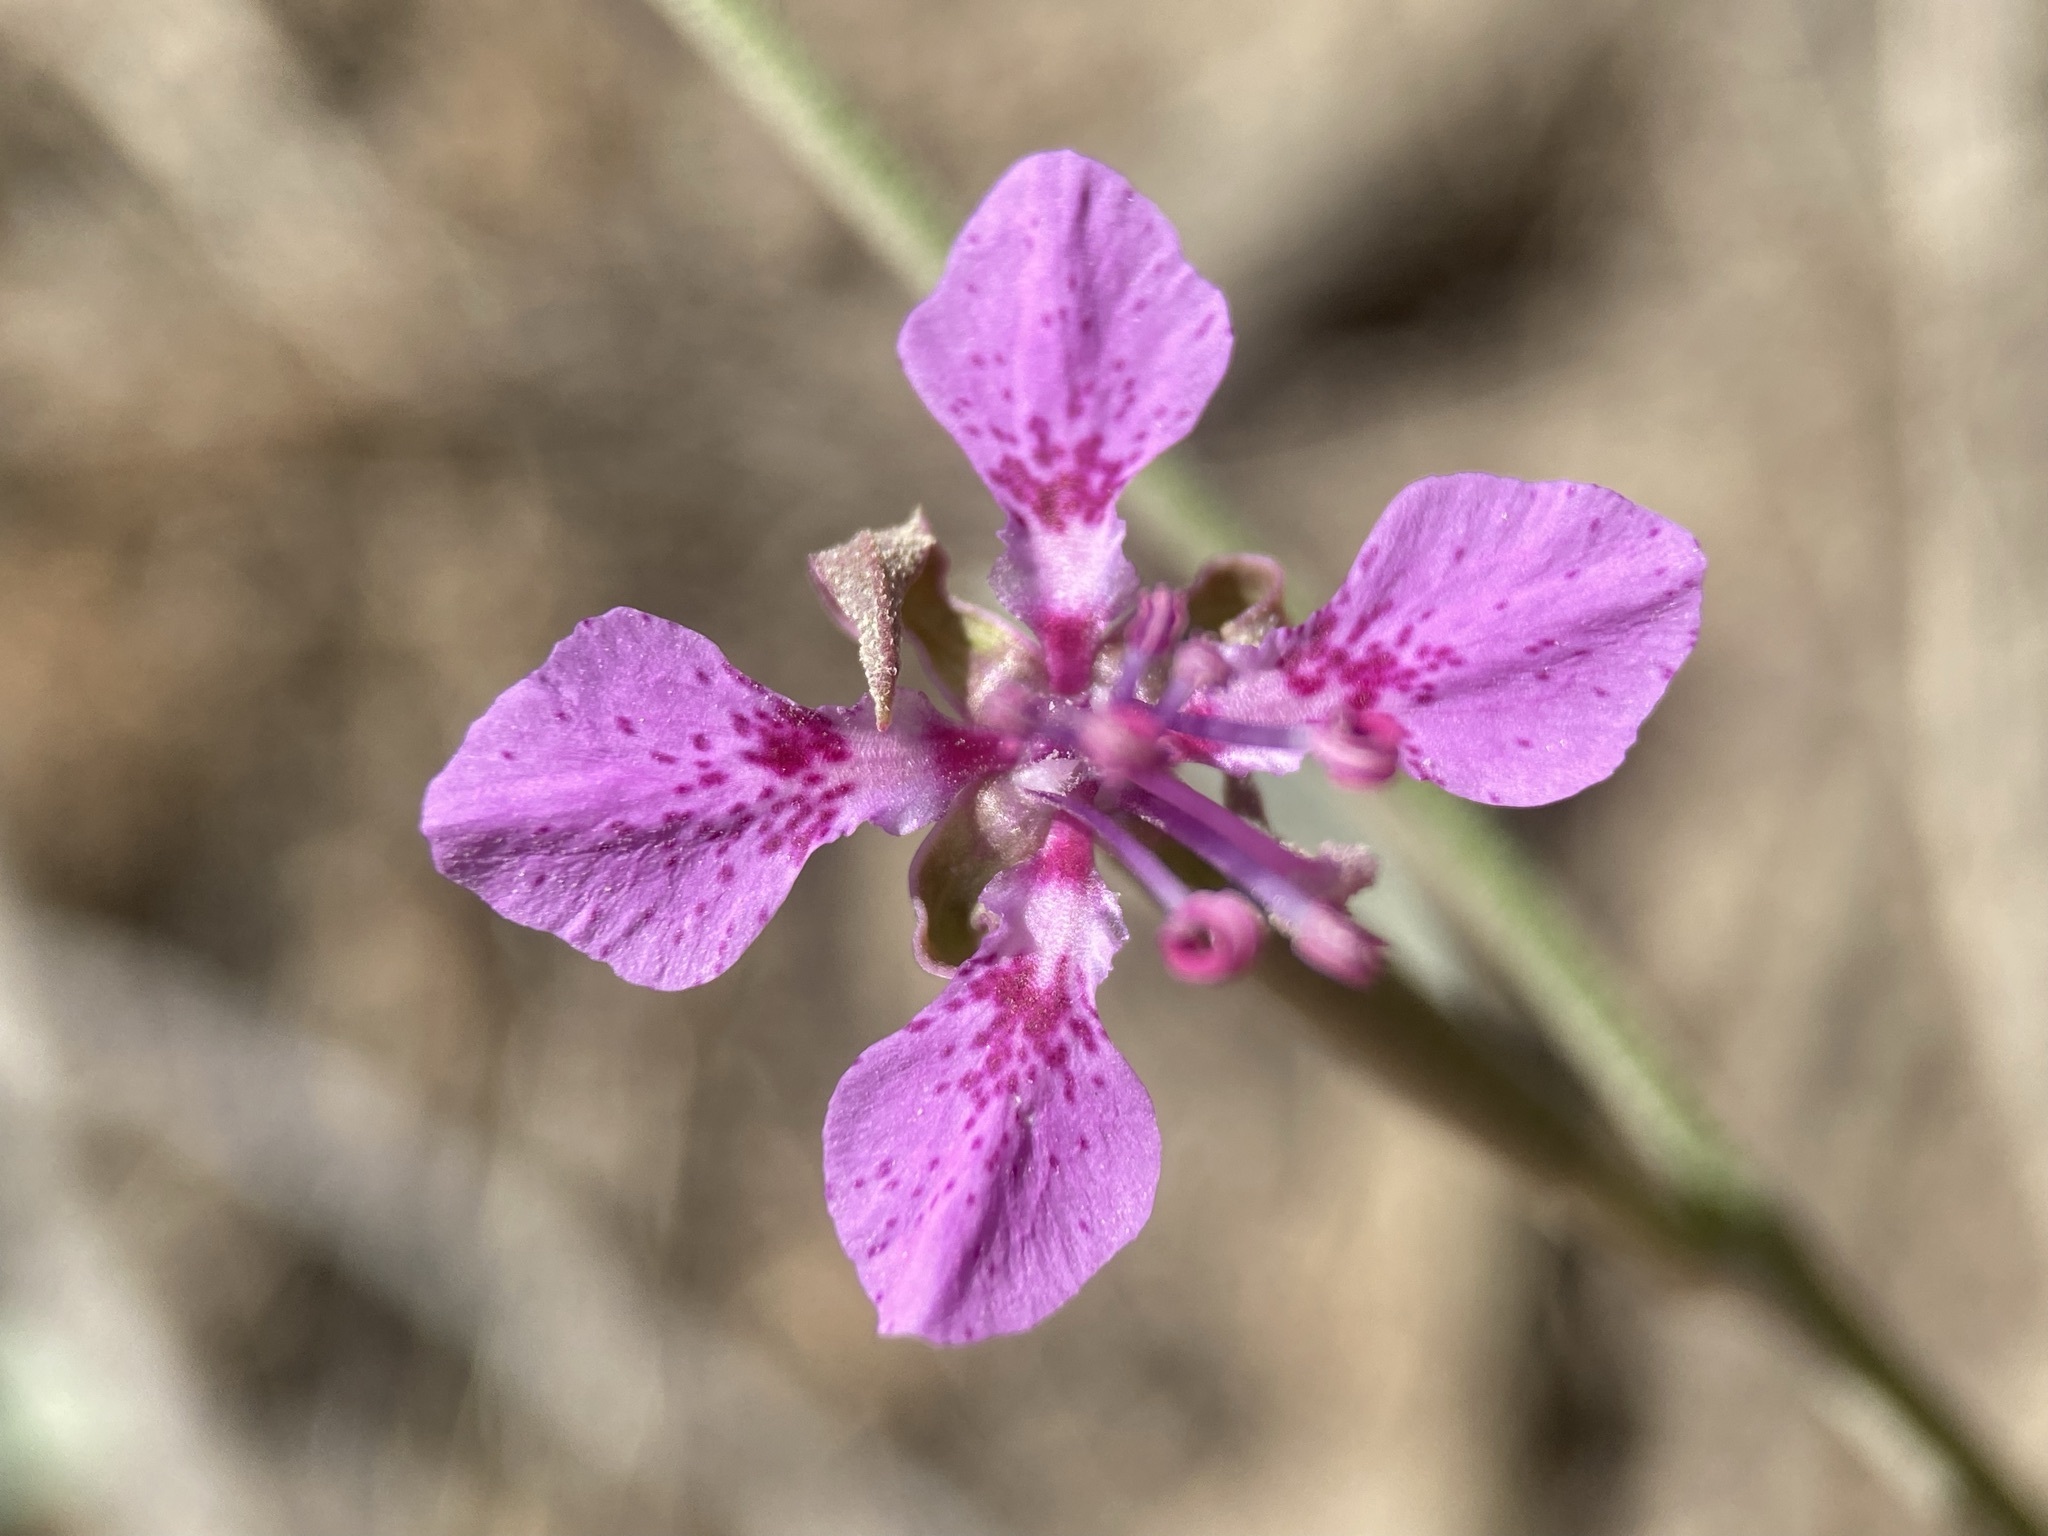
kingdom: Plantae
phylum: Tracheophyta
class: Magnoliopsida
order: Myrtales
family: Onagraceae
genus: Clarkia
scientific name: Clarkia rhomboidea
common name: Broadleaf clarkia
